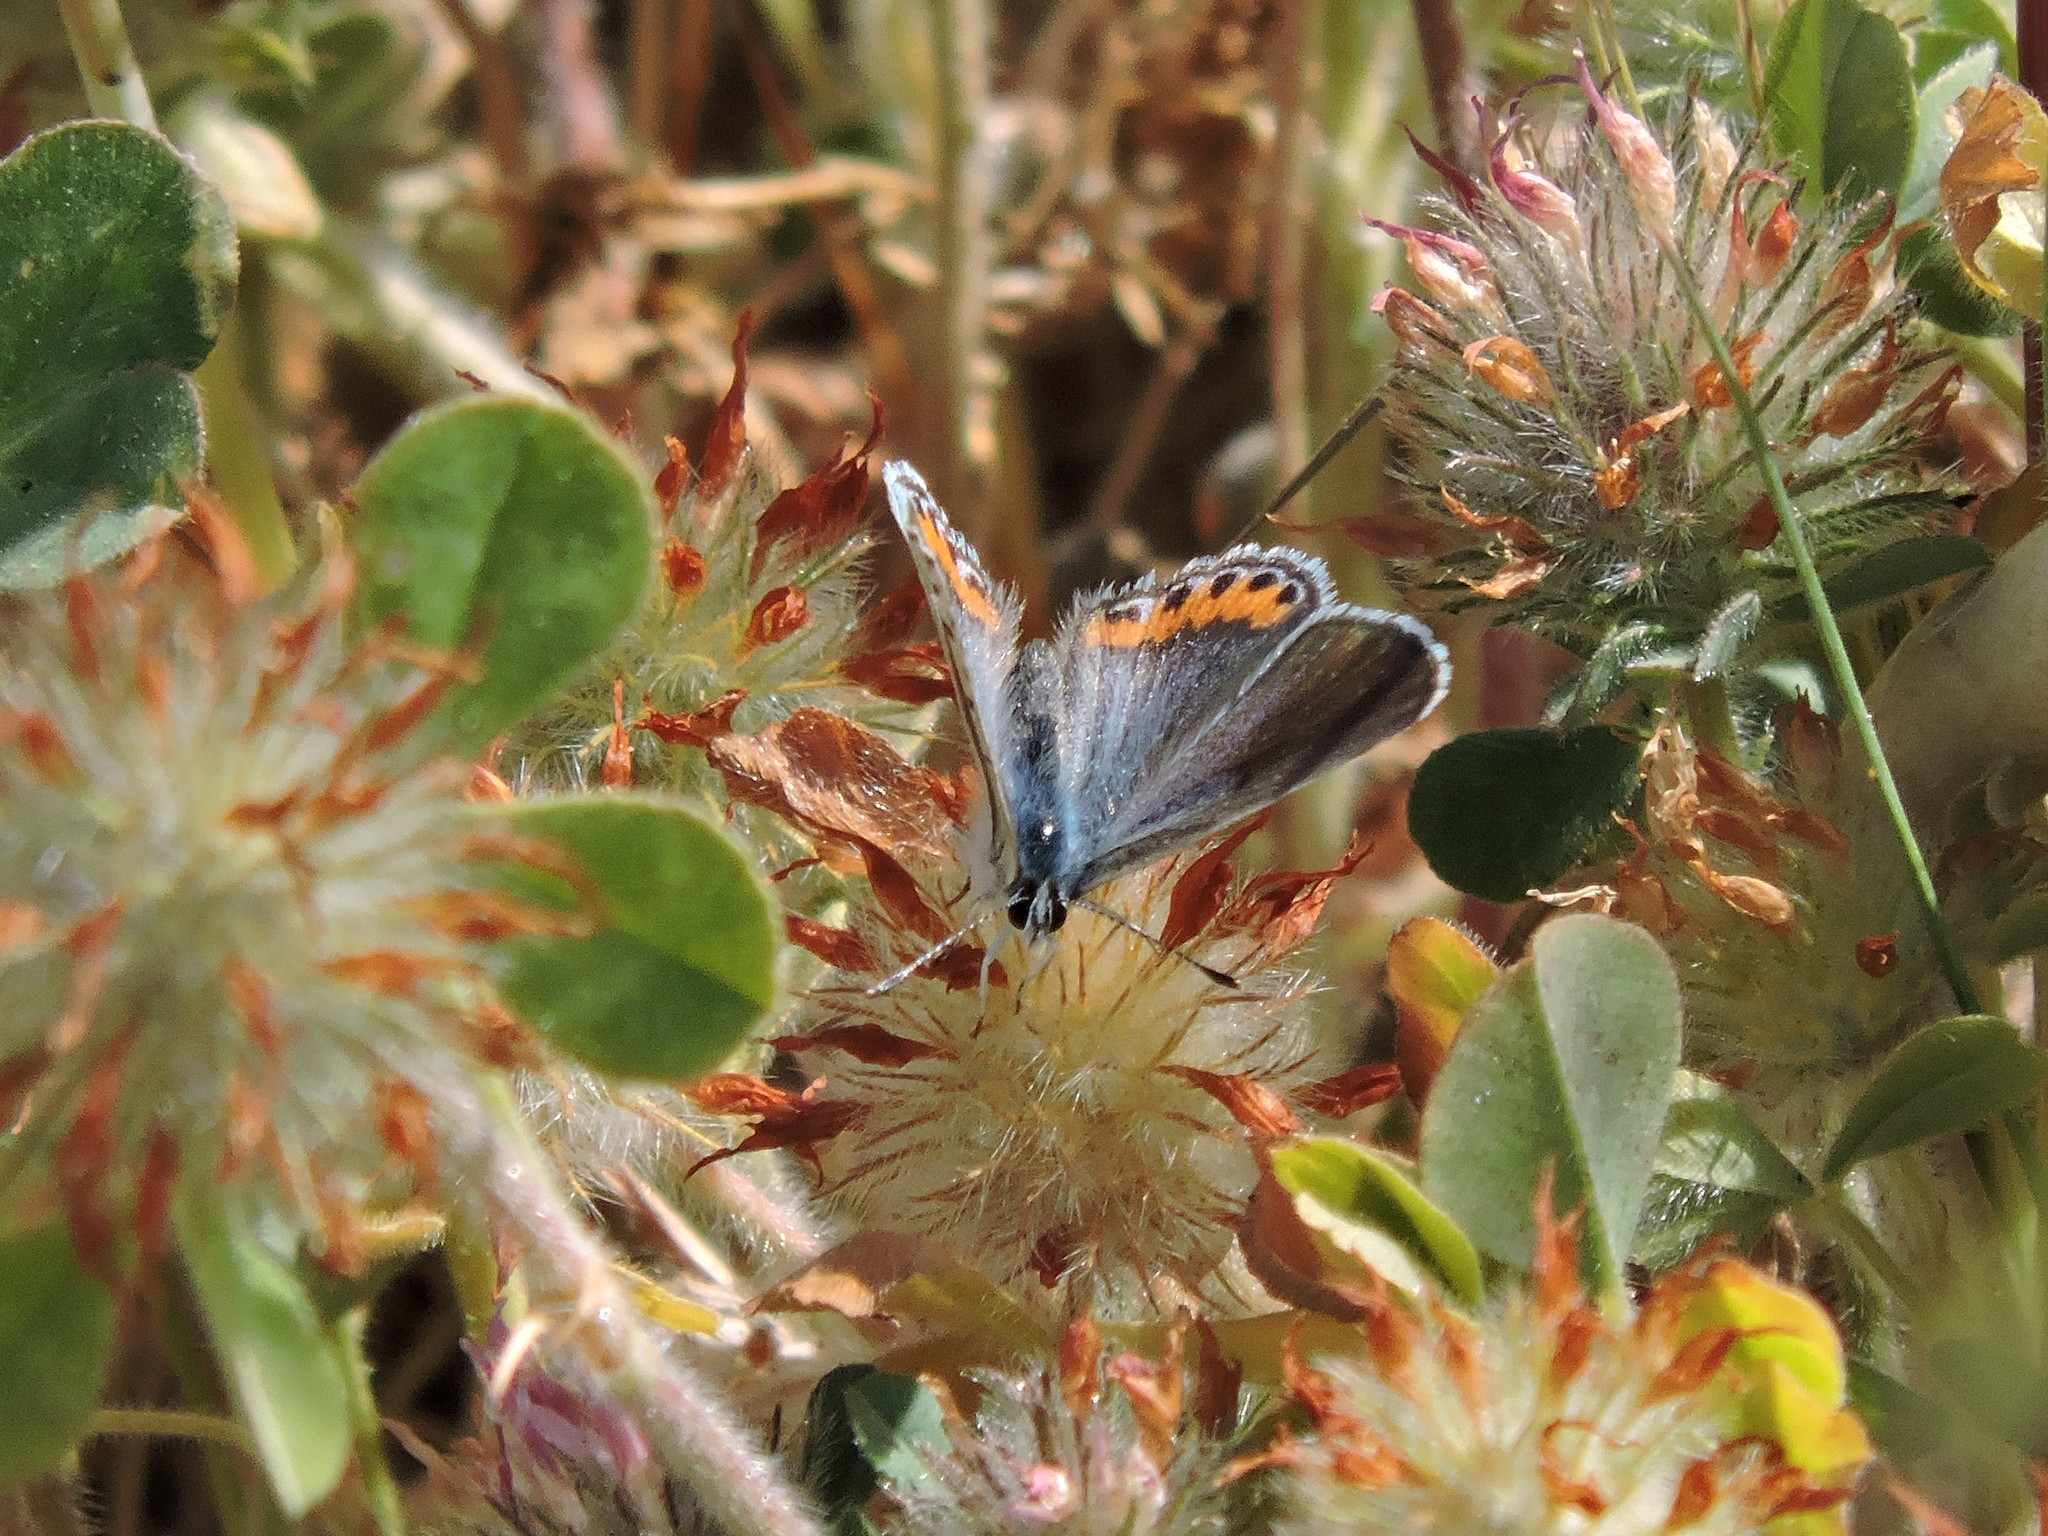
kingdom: Animalia
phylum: Arthropoda
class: Insecta
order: Lepidoptera
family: Lycaenidae
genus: Icaricia
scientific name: Icaricia acmon
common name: Acmon blue
